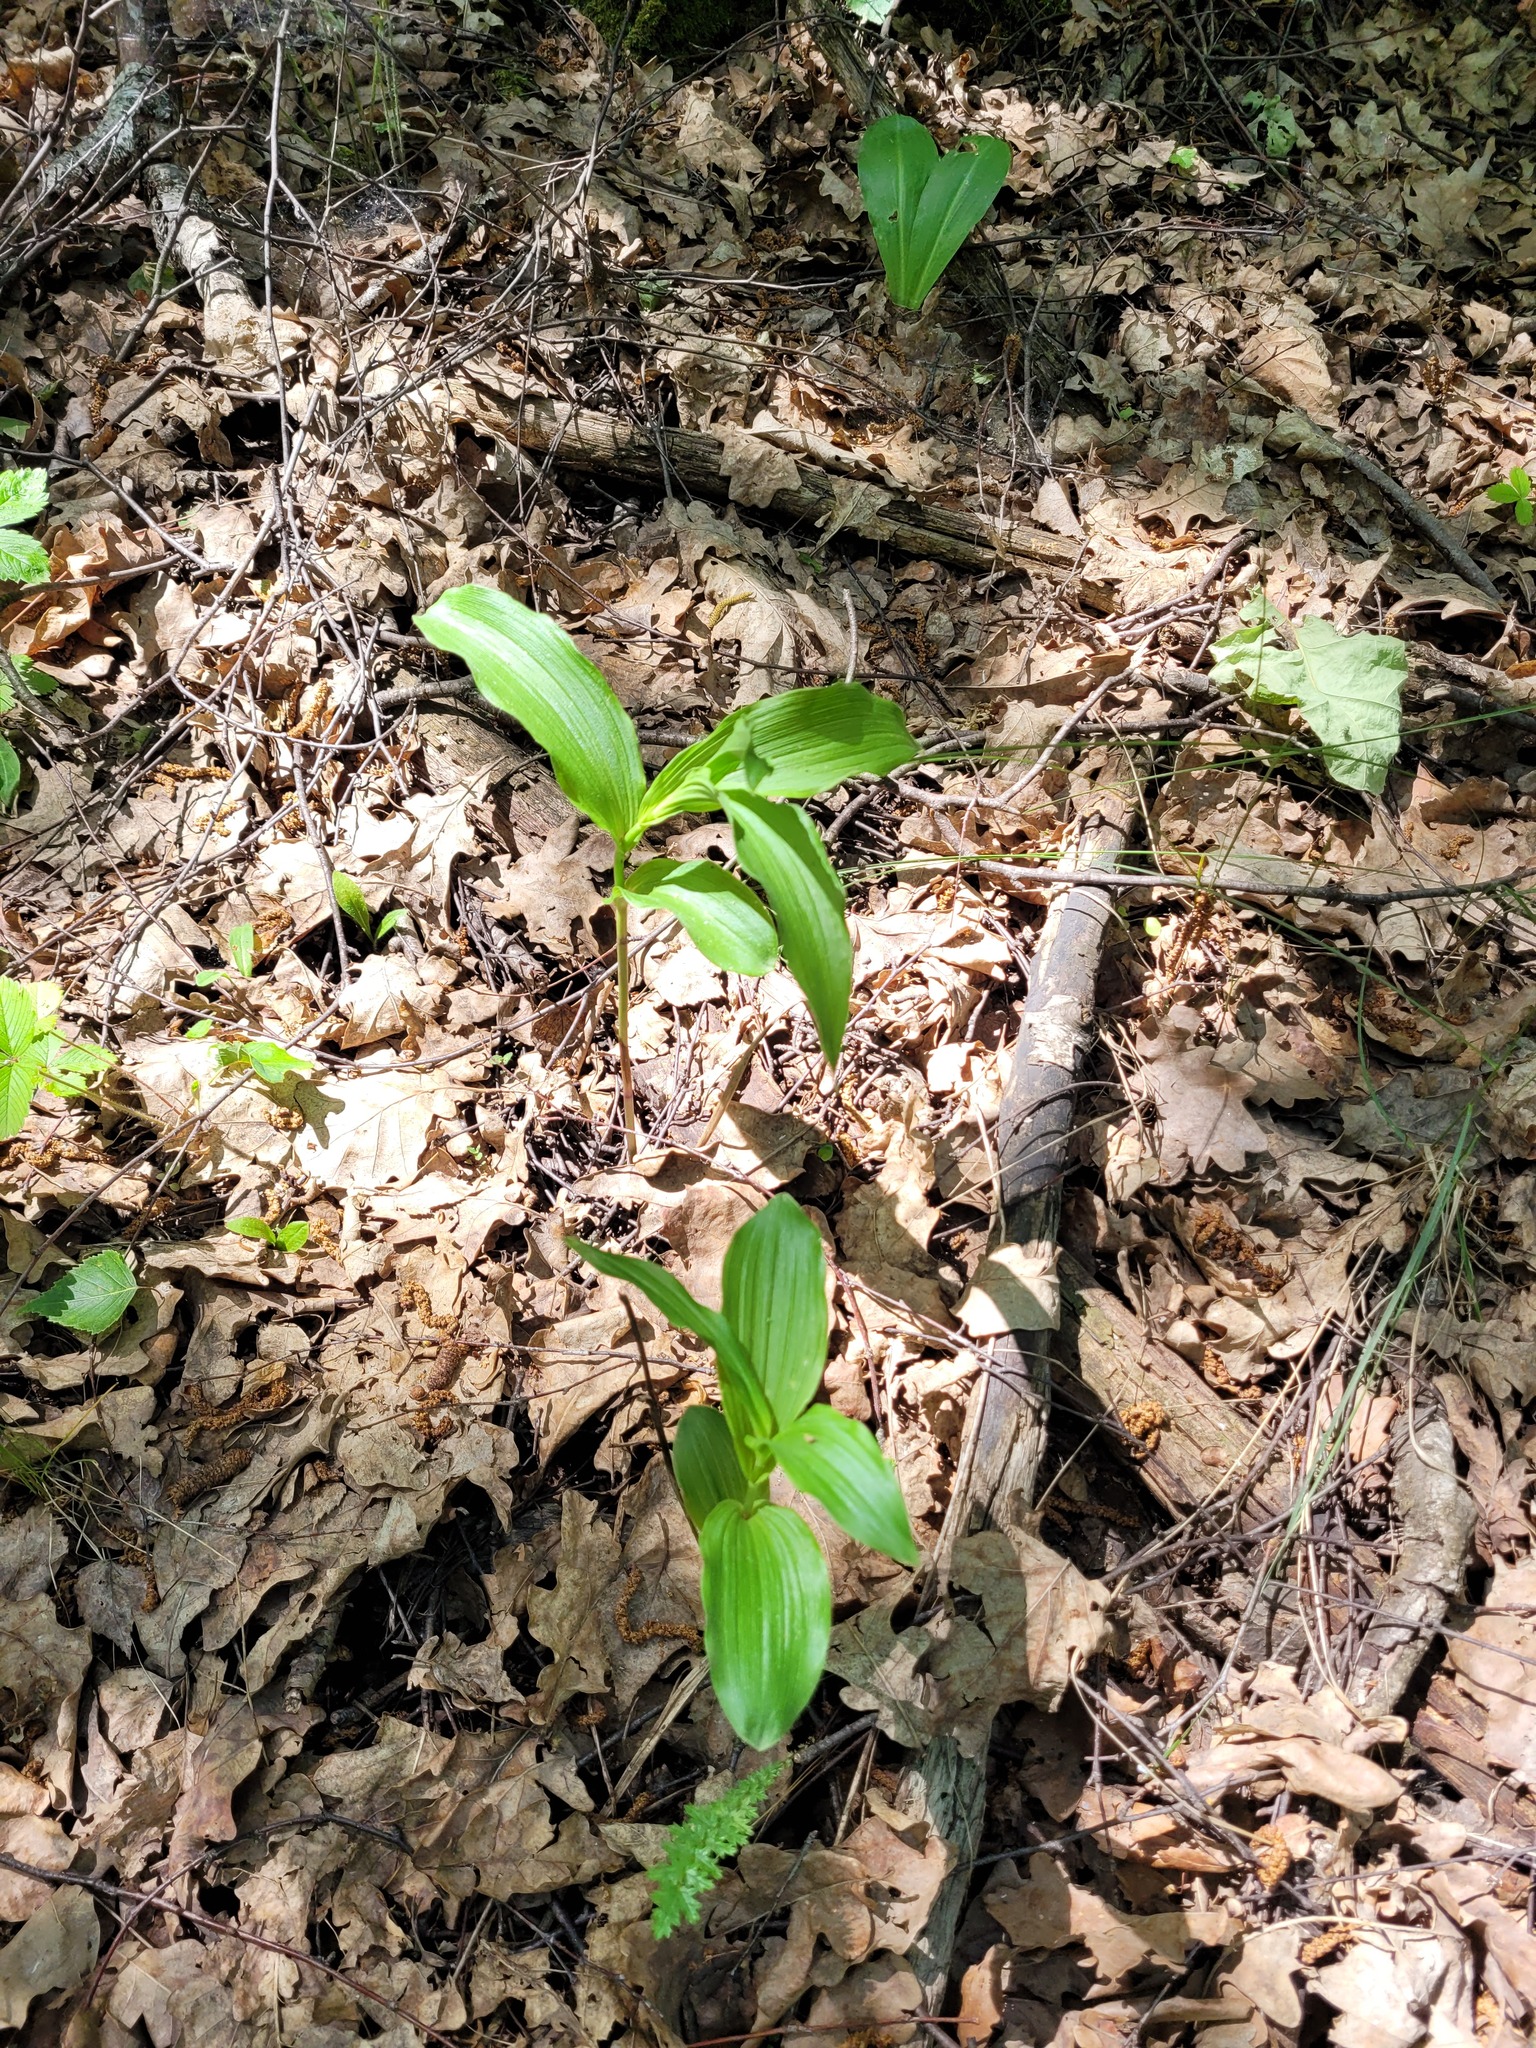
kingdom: Plantae
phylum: Tracheophyta
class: Liliopsida
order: Asparagales
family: Orchidaceae
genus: Epipactis
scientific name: Epipactis helleborine
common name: Broad-leaved helleborine
